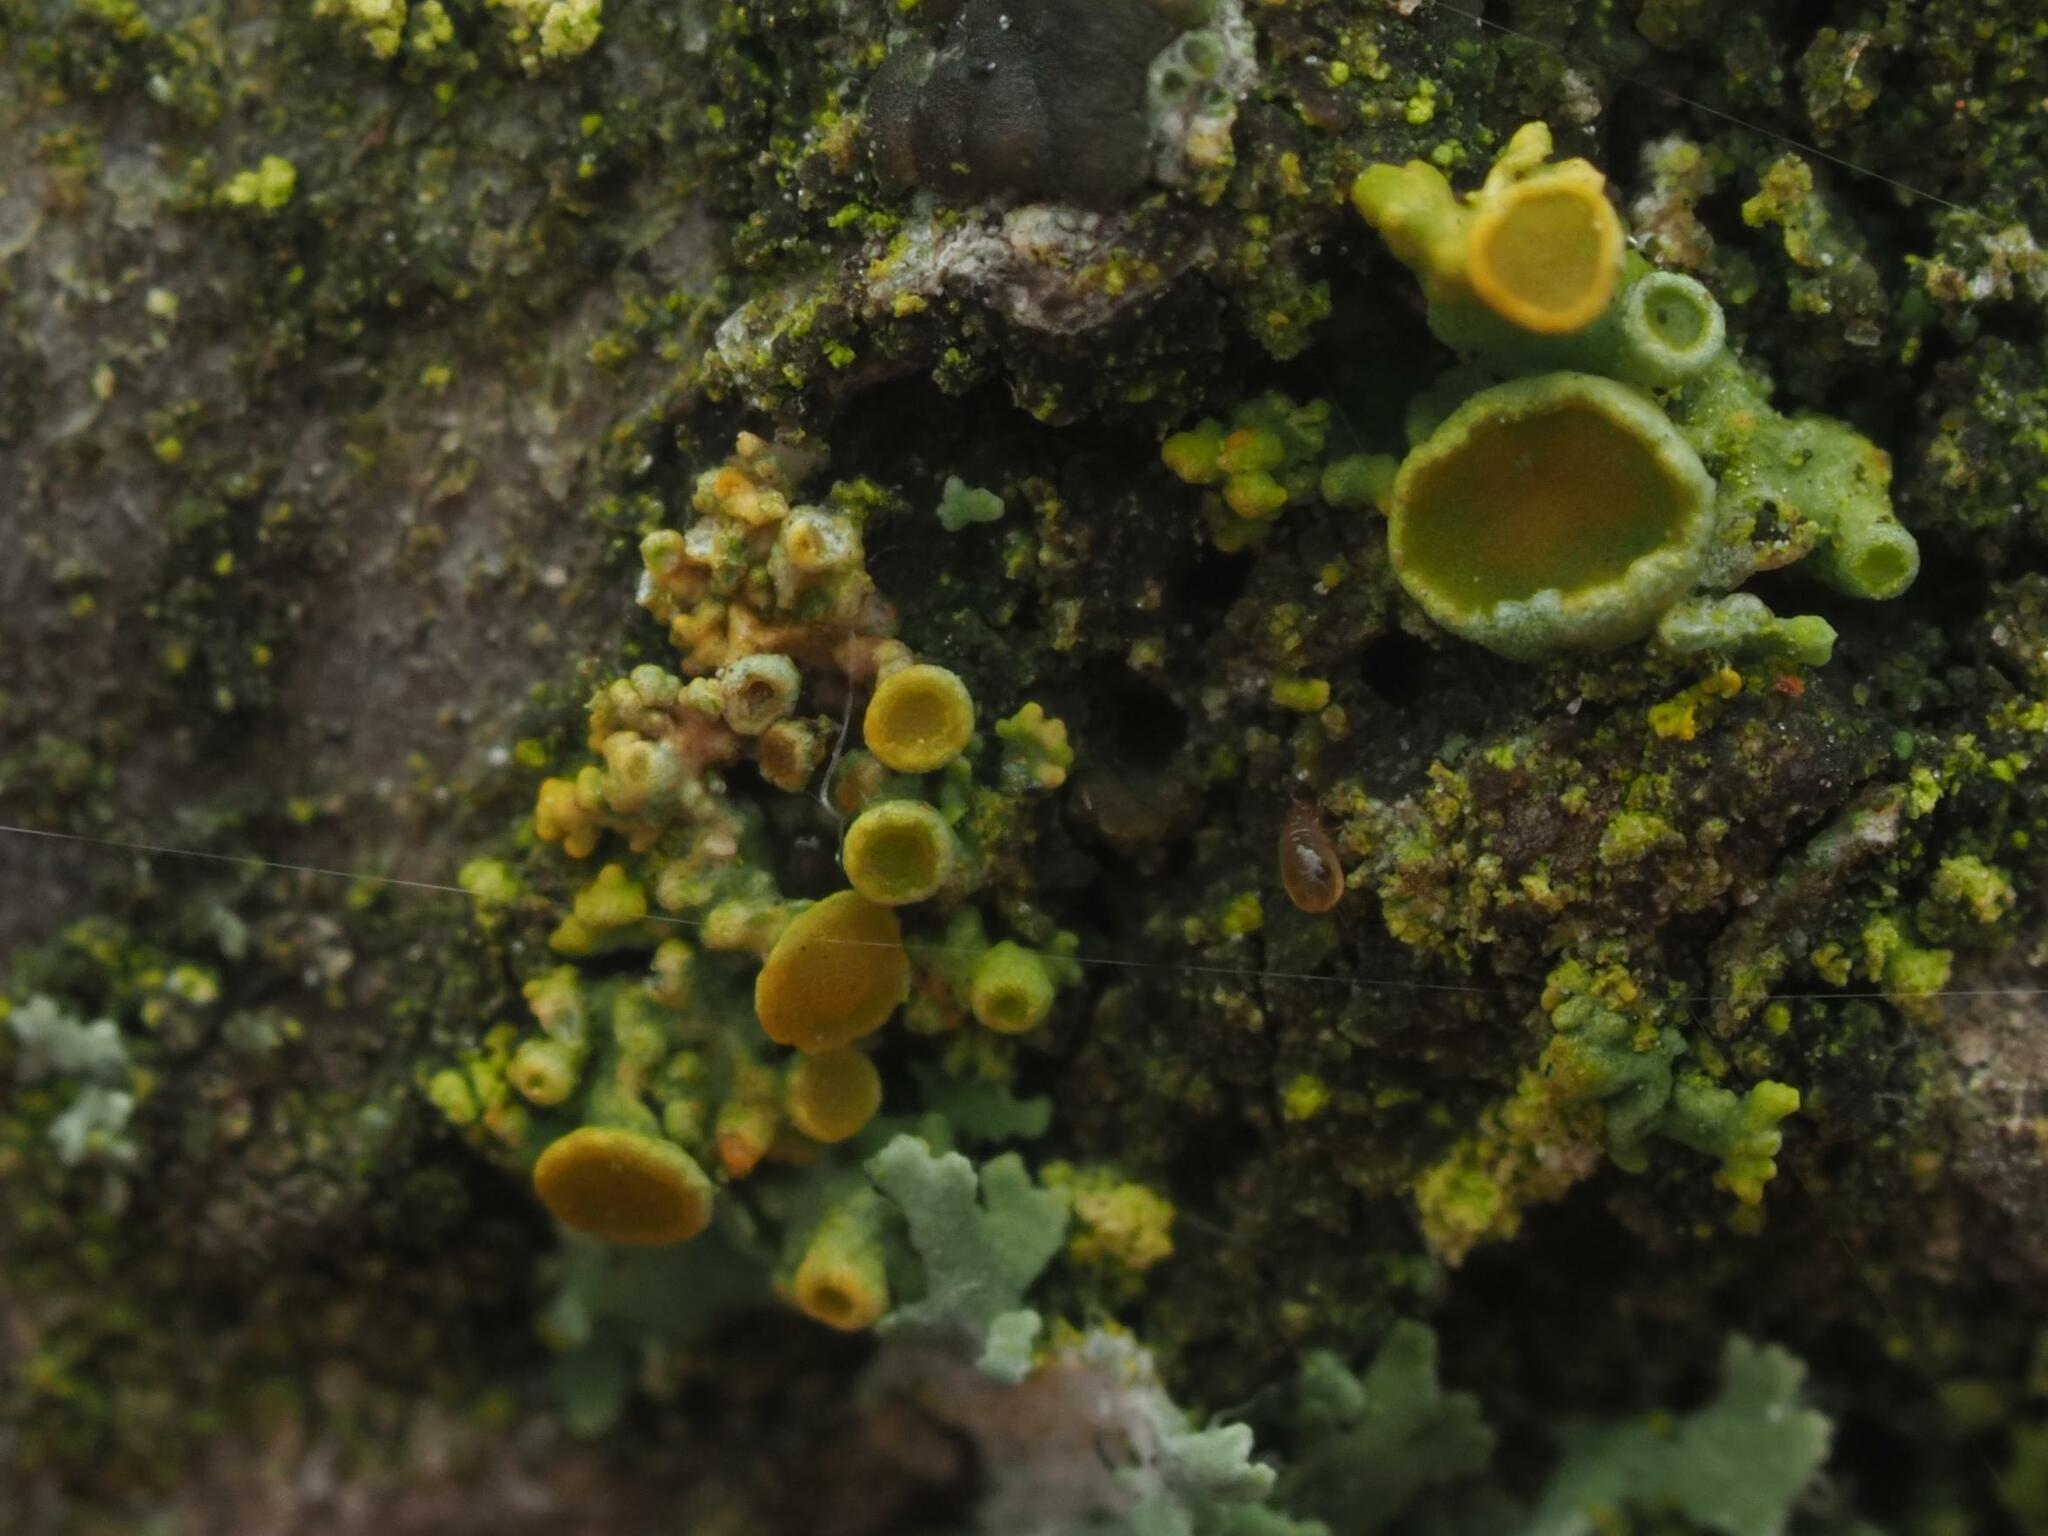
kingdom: Fungi
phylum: Ascomycota
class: Lecanoromycetes
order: Teloschistales
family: Teloschistaceae
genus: Polycauliona
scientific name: Polycauliona polycarpa
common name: Pin-cushion sunburst lichen
